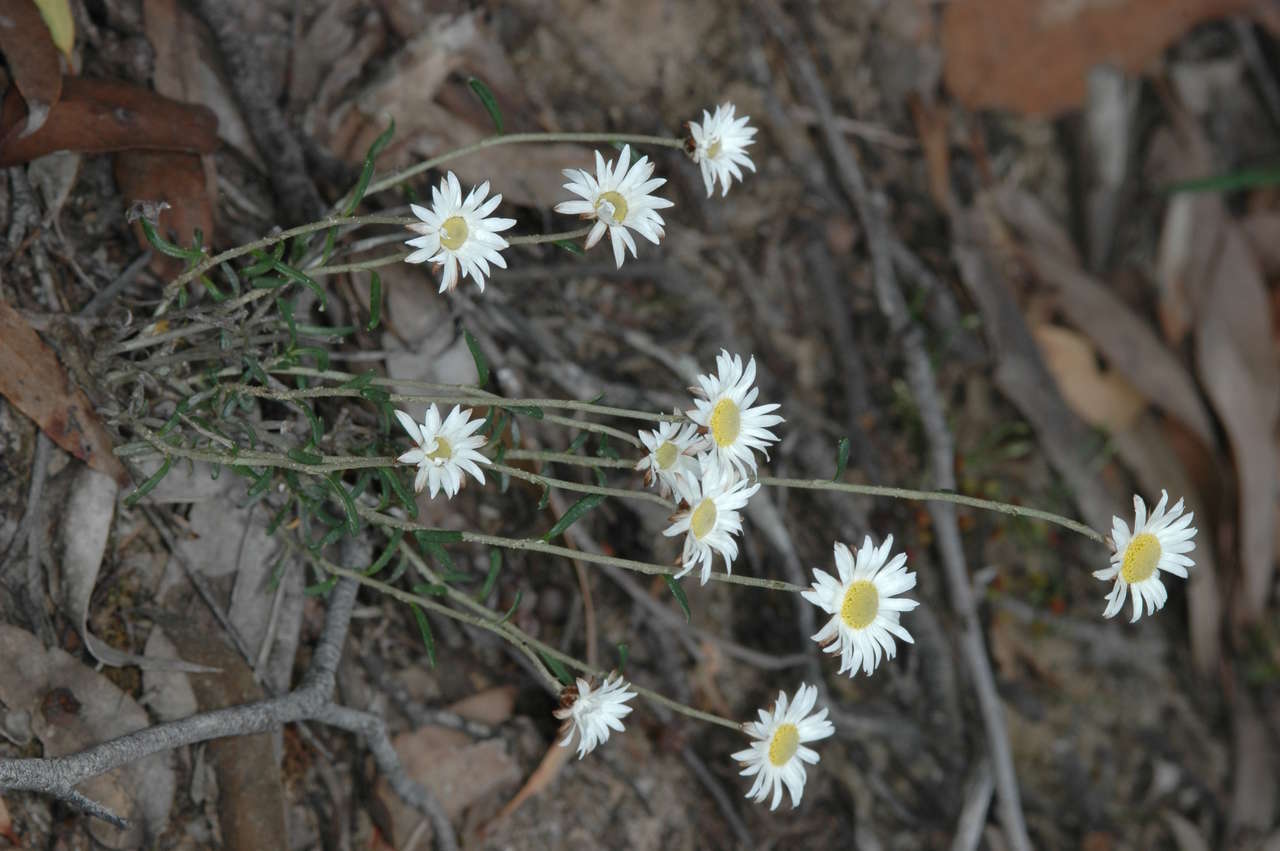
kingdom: Plantae
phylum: Tracheophyta
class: Magnoliopsida
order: Asterales
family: Asteraceae
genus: Argentipallium
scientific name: Argentipallium obtusifolium
